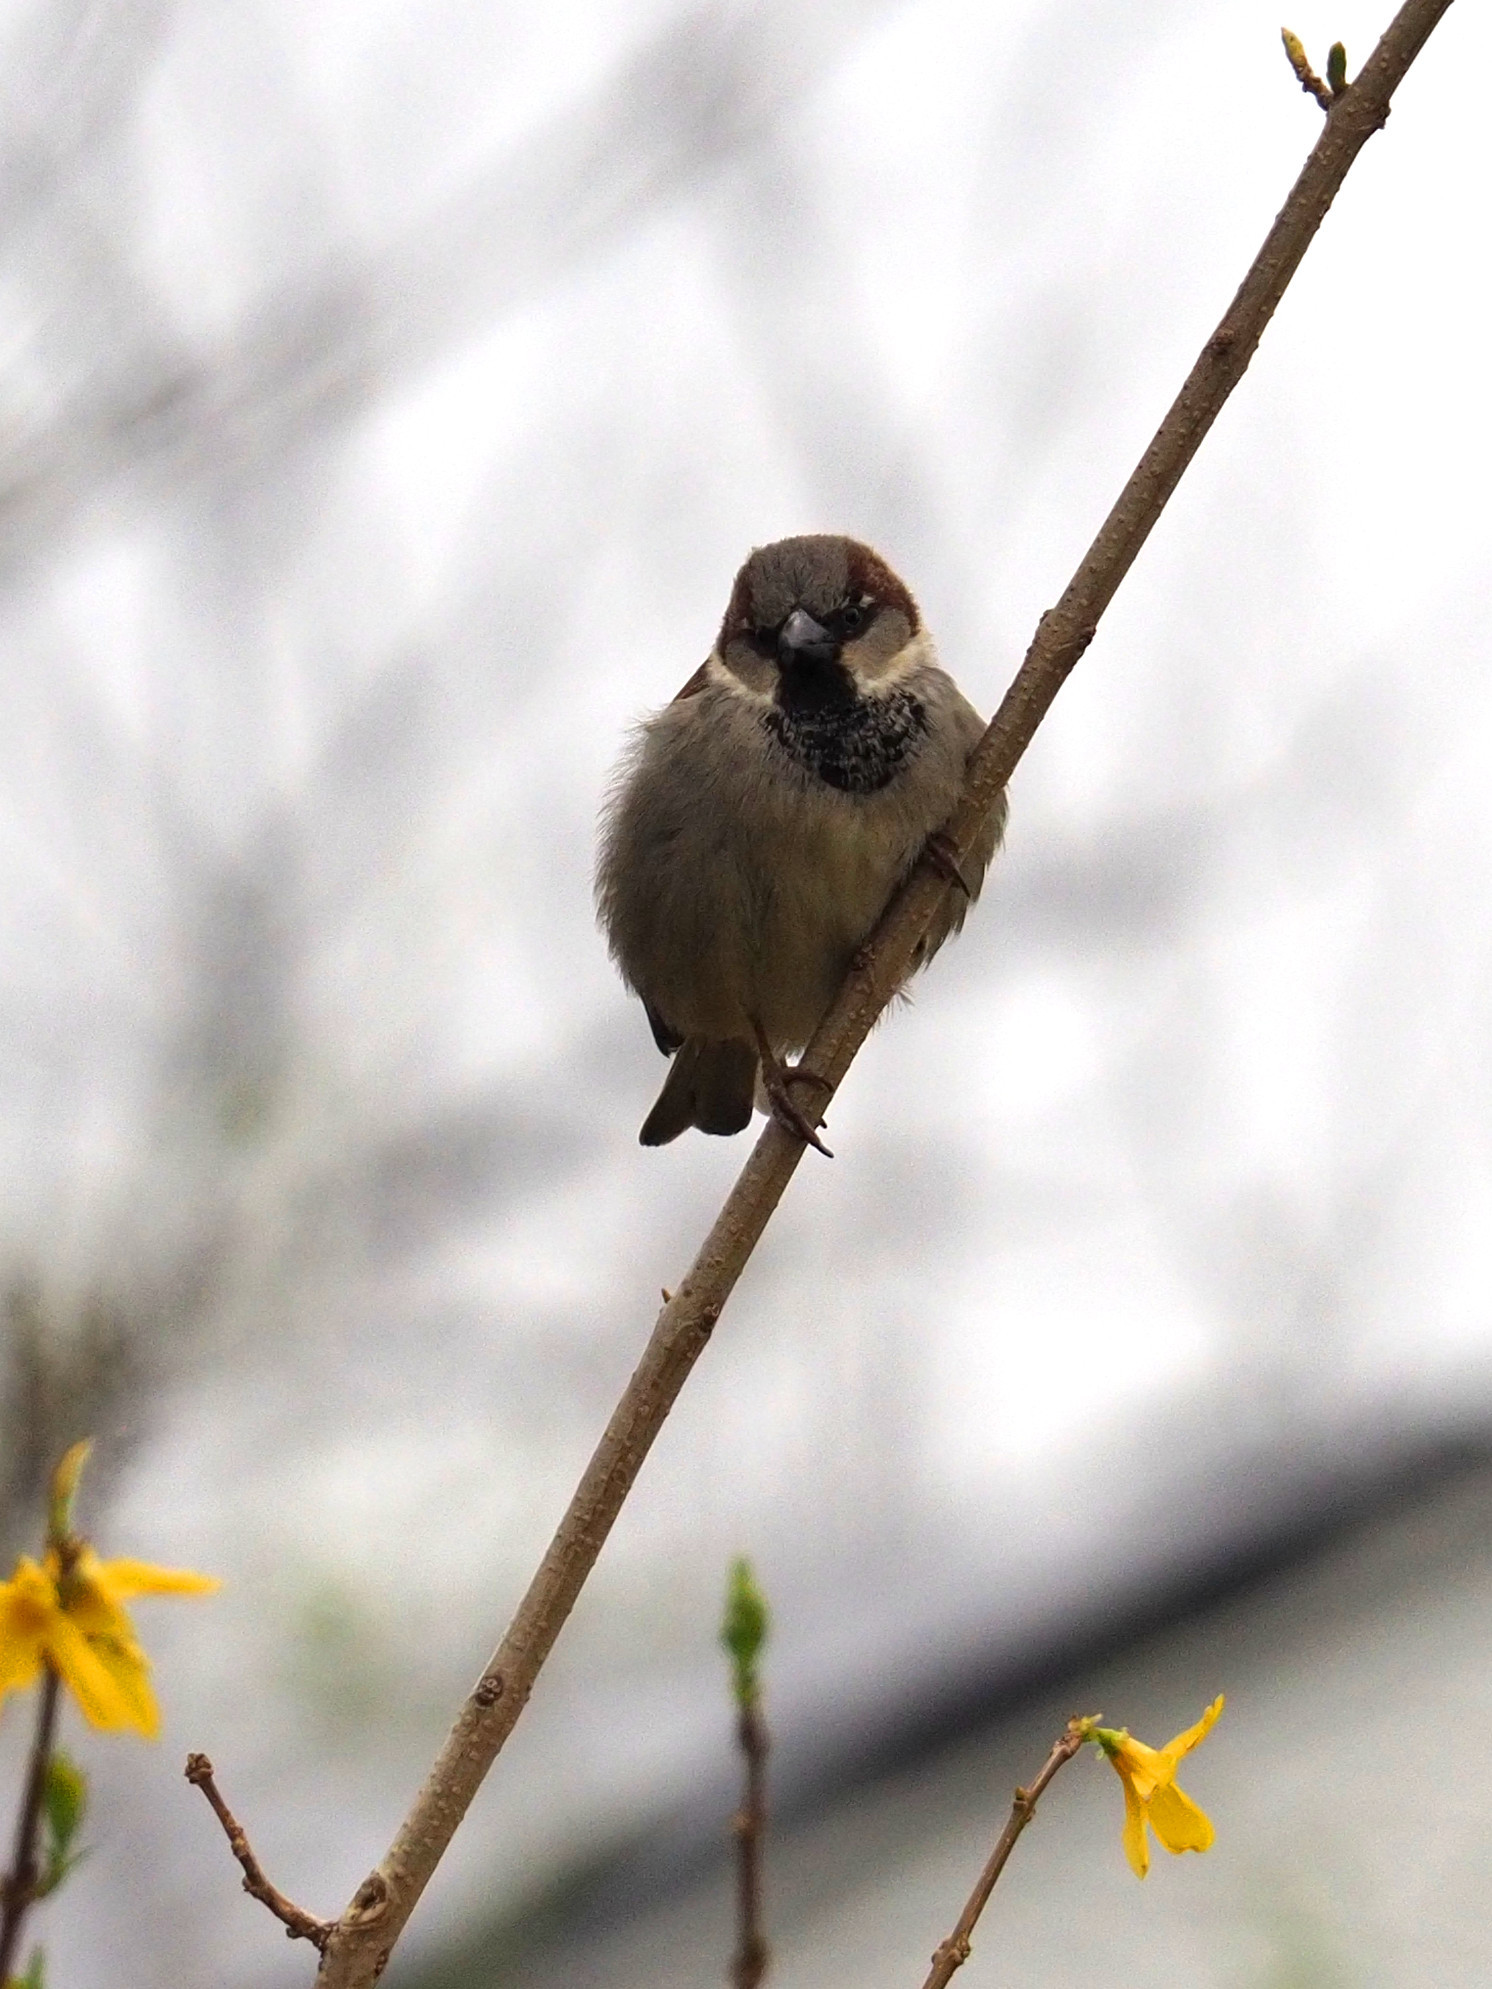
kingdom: Animalia
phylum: Chordata
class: Aves
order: Passeriformes
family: Passeridae
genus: Passer
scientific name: Passer domesticus
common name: House sparrow
